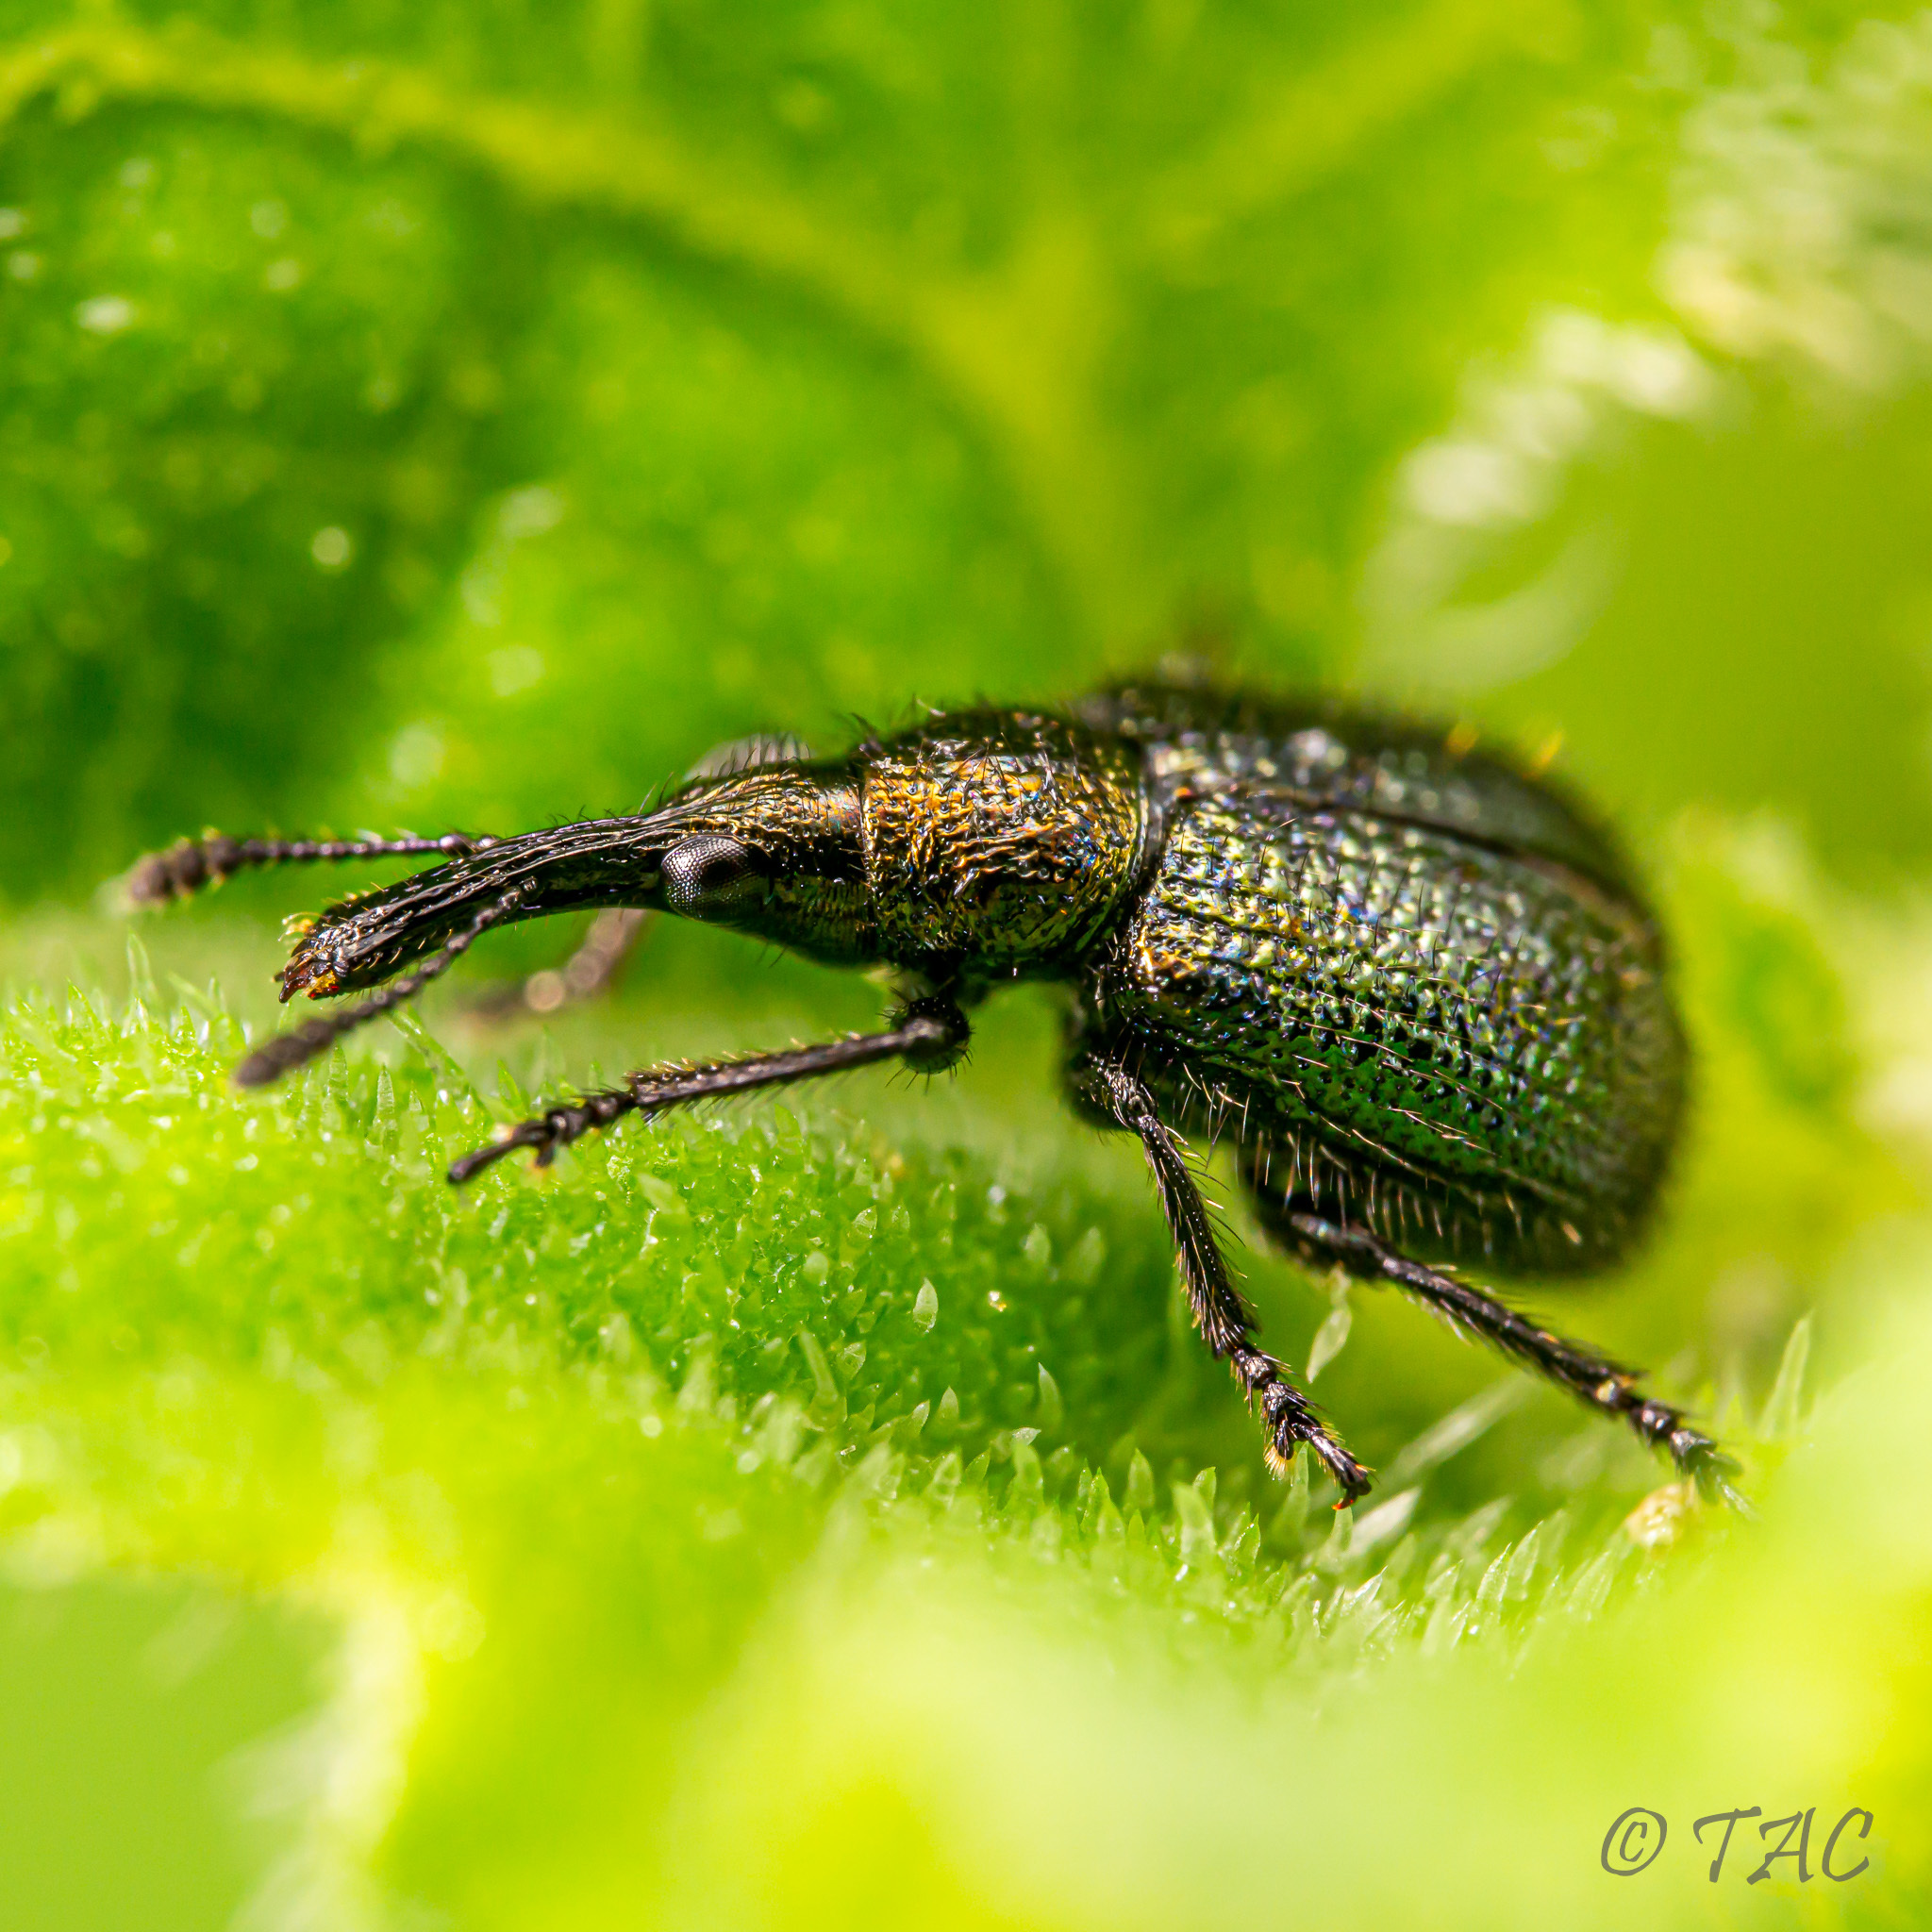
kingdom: Animalia
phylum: Arthropoda
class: Insecta
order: Coleoptera
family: Attelabidae
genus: Haplorhynchites
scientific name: Haplorhynchites quadripennis
